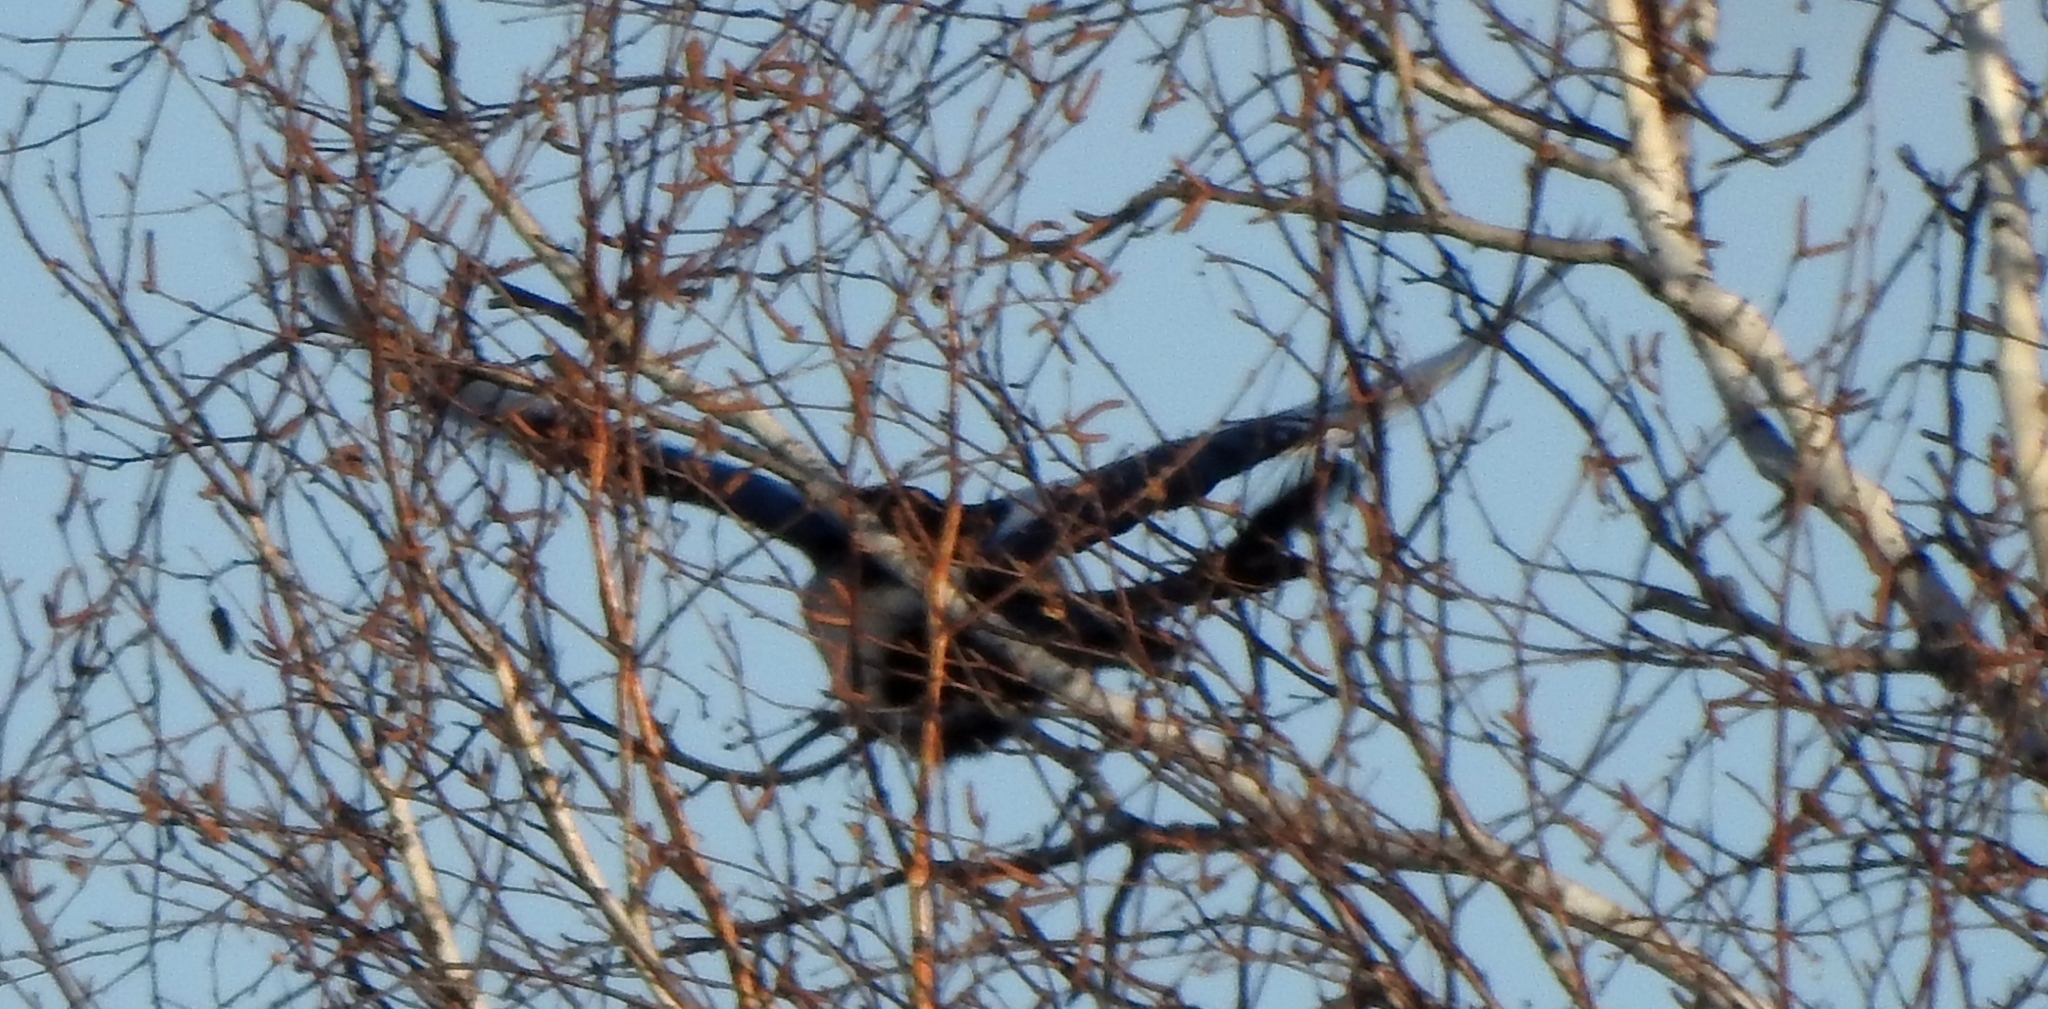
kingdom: Animalia
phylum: Chordata
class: Aves
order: Passeriformes
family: Corvidae
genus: Garrulus
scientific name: Garrulus glandarius
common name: Eurasian jay
